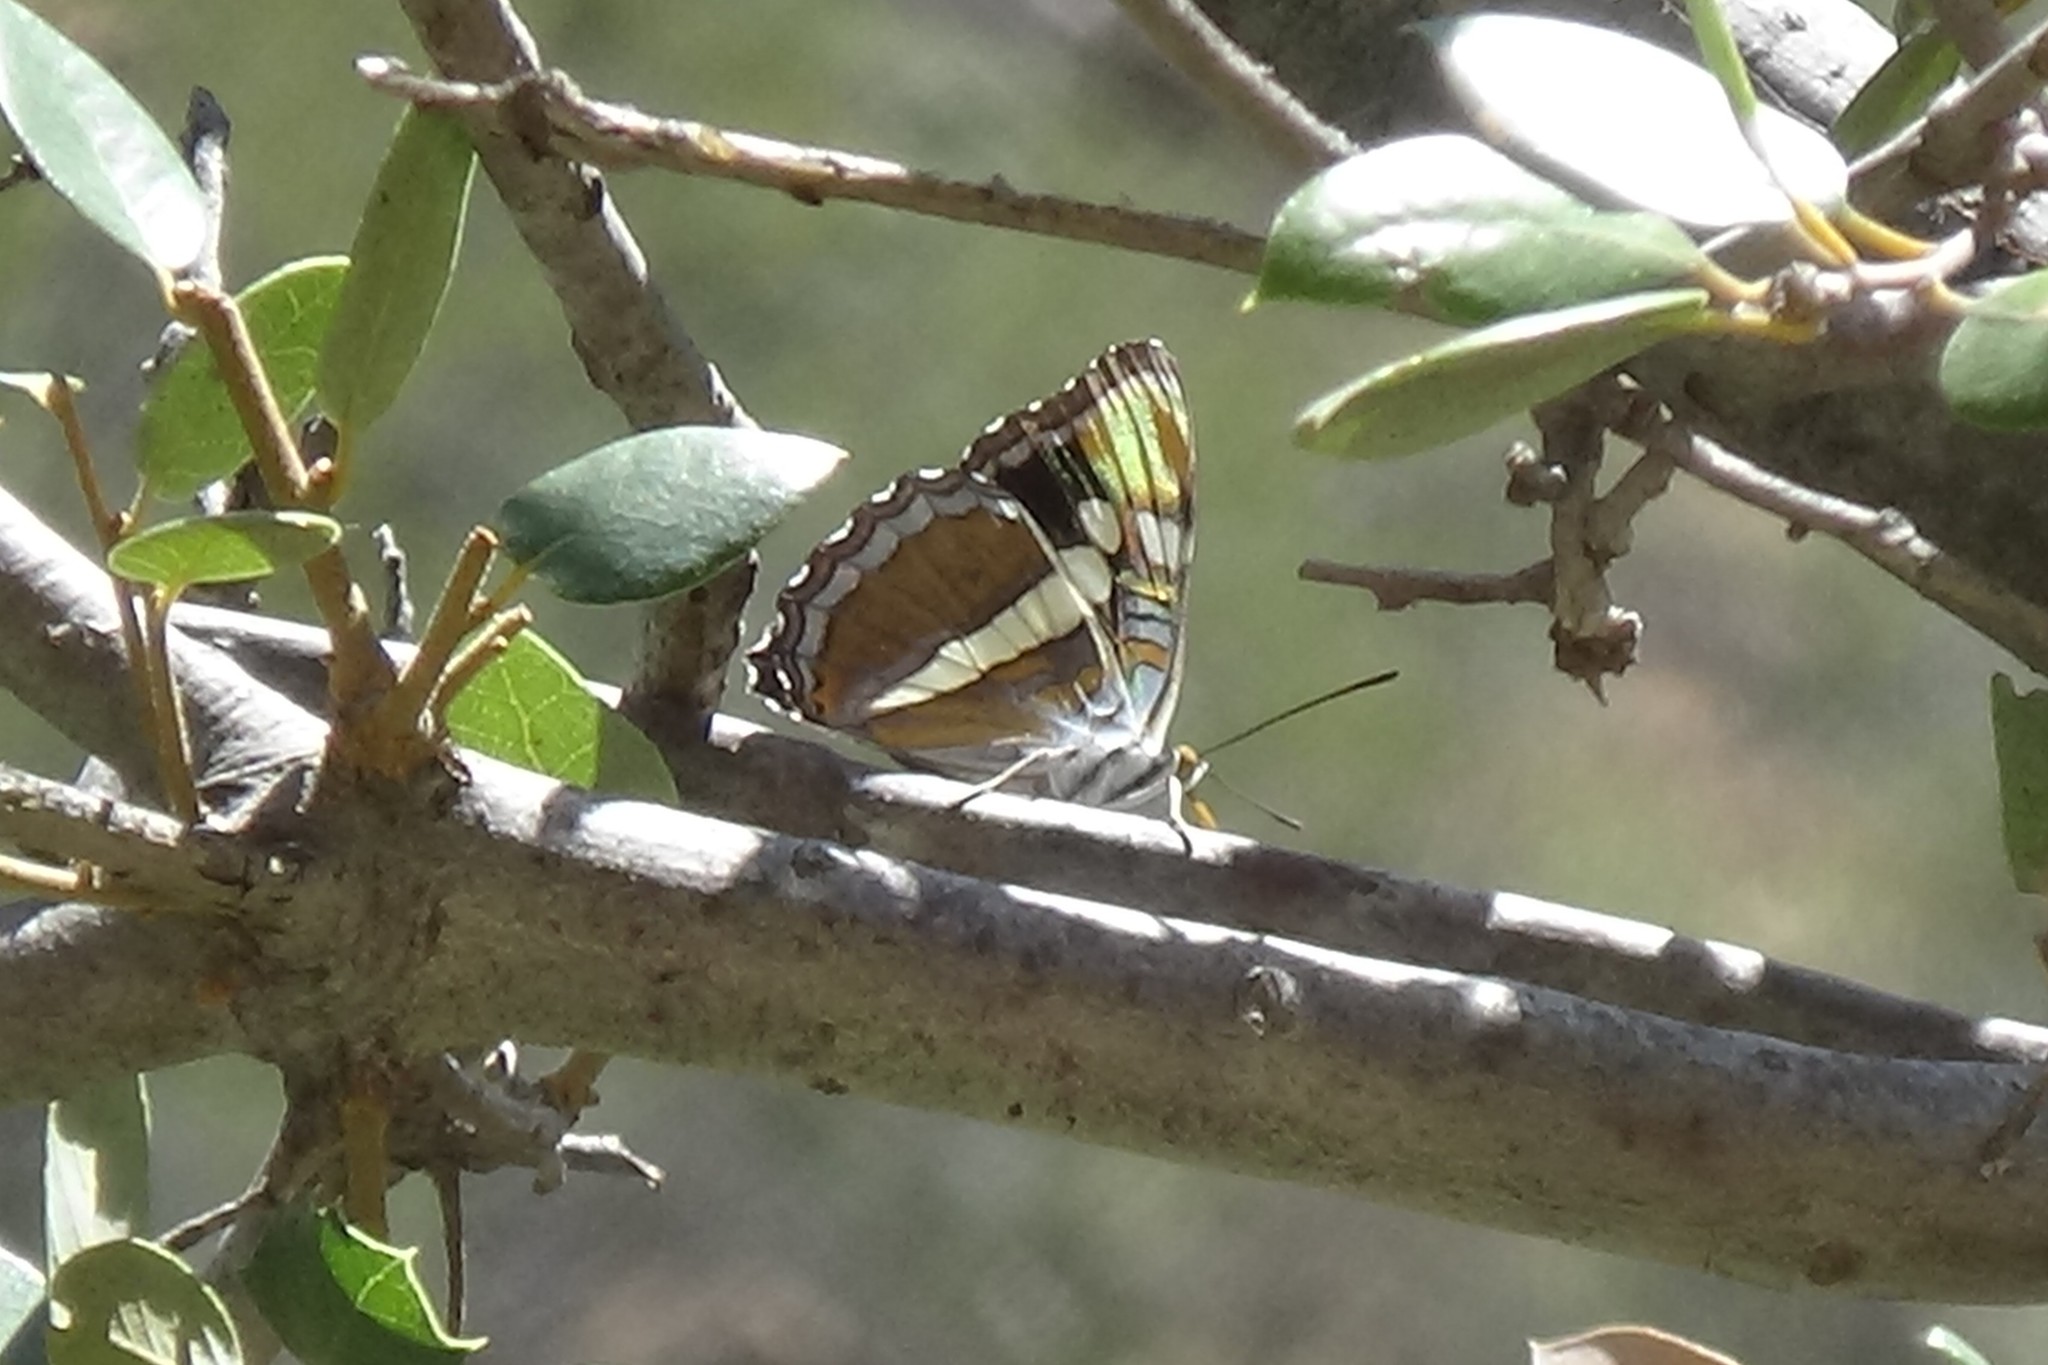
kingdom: Animalia
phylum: Arthropoda
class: Insecta
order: Lepidoptera
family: Nymphalidae
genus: Limenitis
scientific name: Limenitis bredowii
